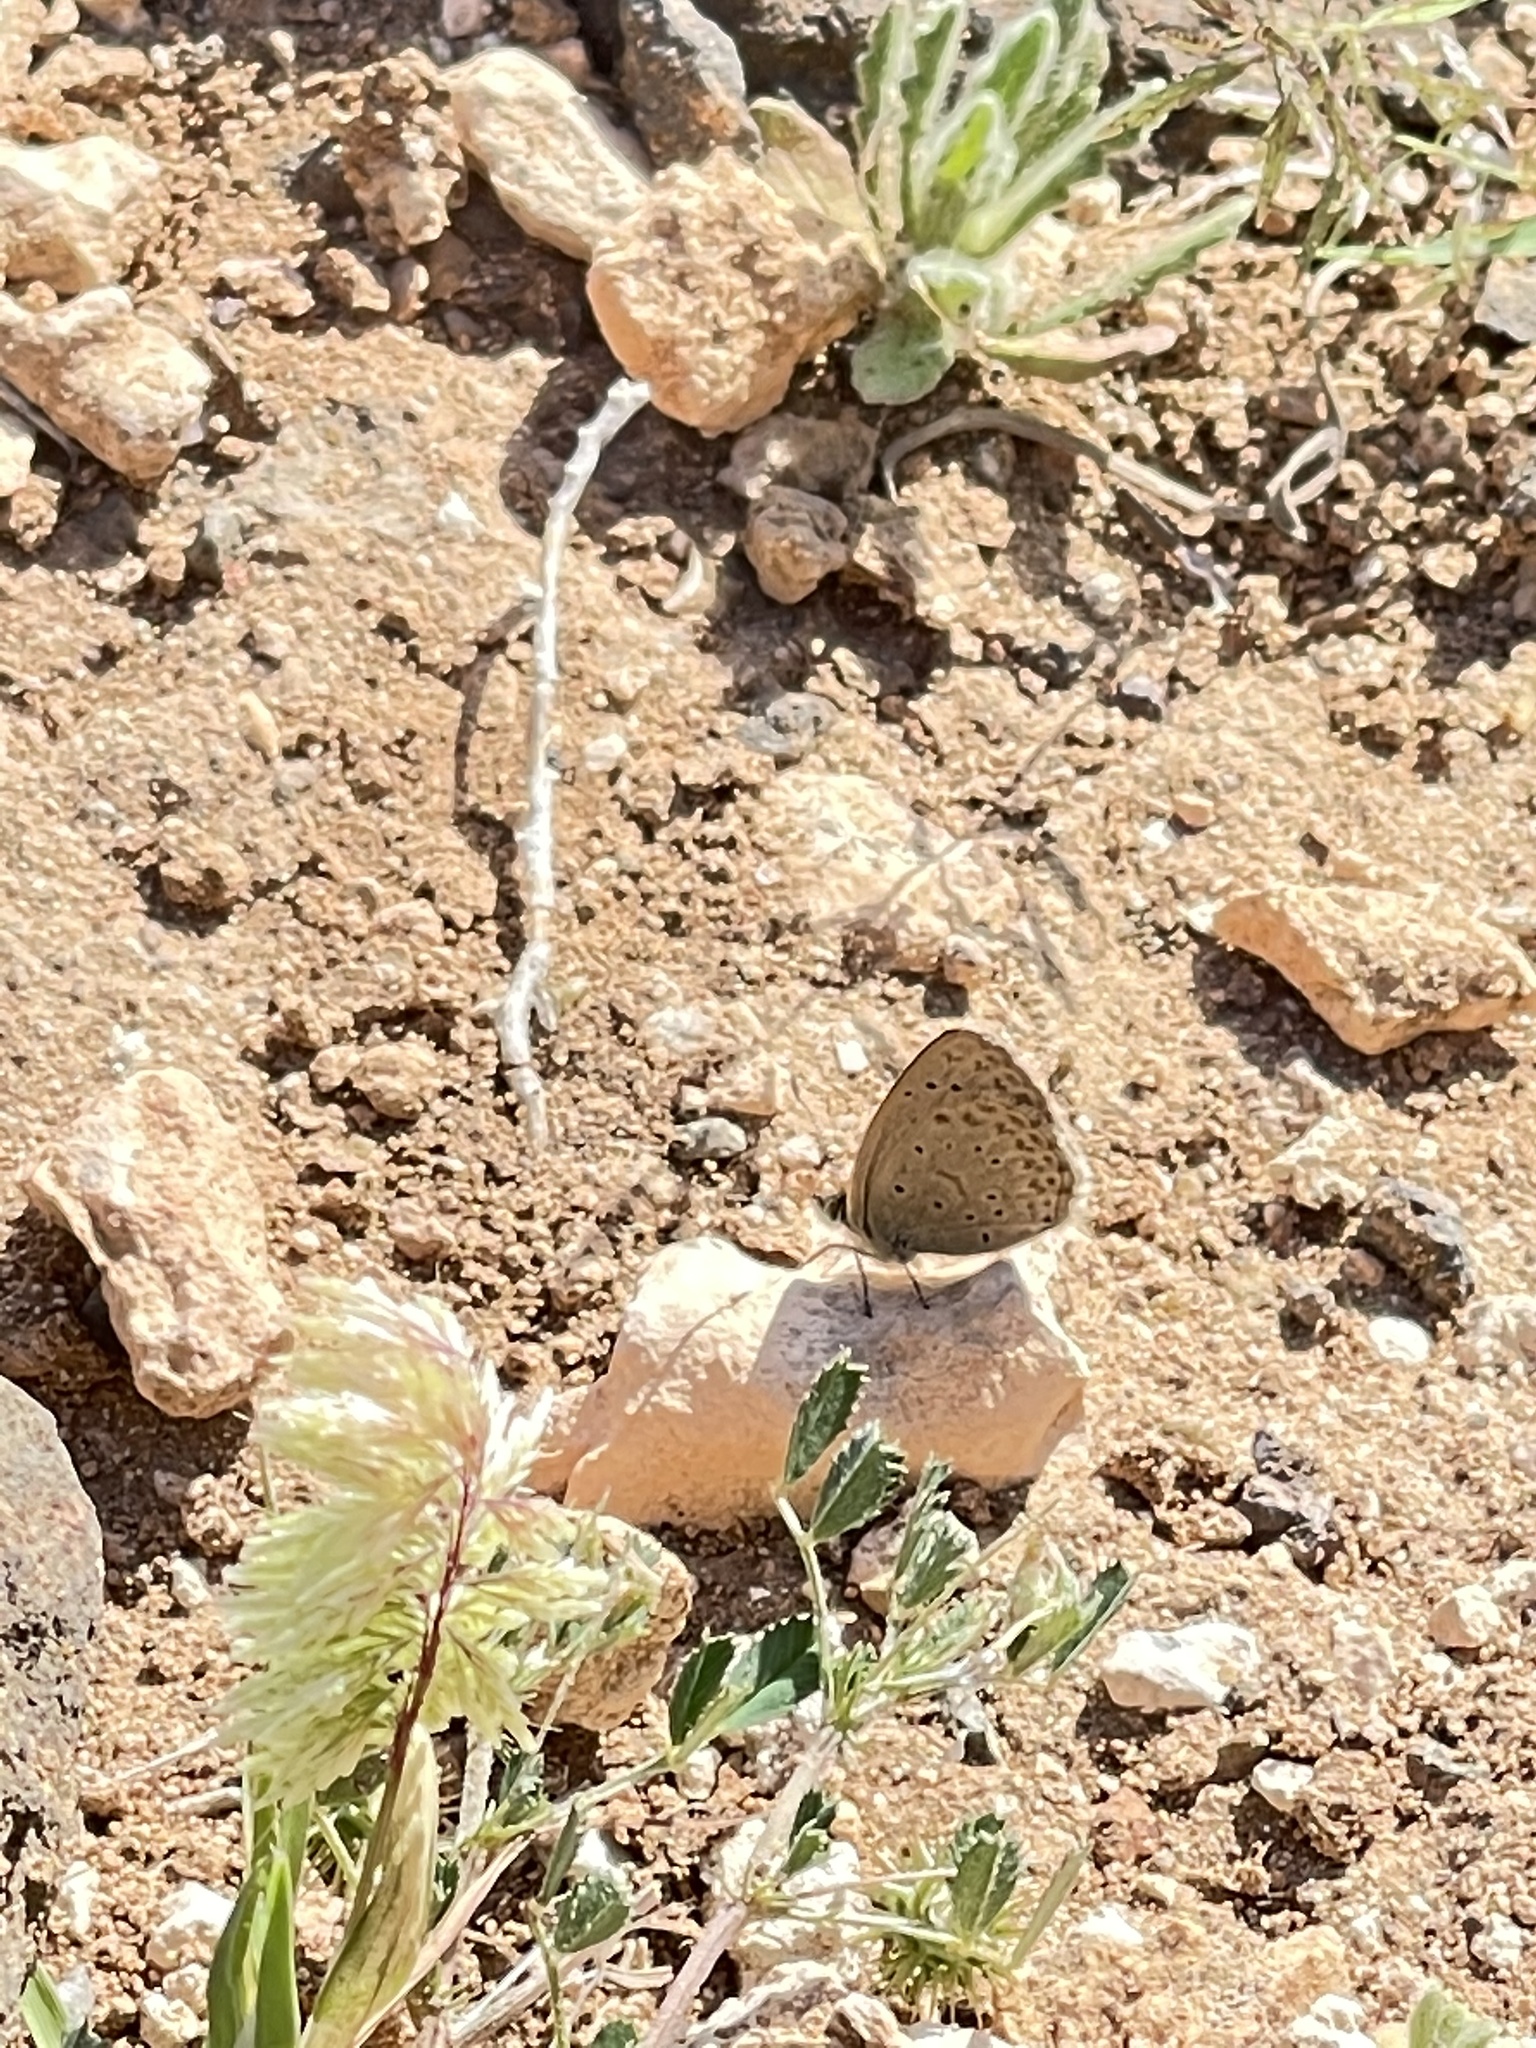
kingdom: Animalia
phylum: Arthropoda
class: Insecta
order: Lepidoptera
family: Lycaenidae
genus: Zizeeria
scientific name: Zizeeria knysna
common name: African grass blue
